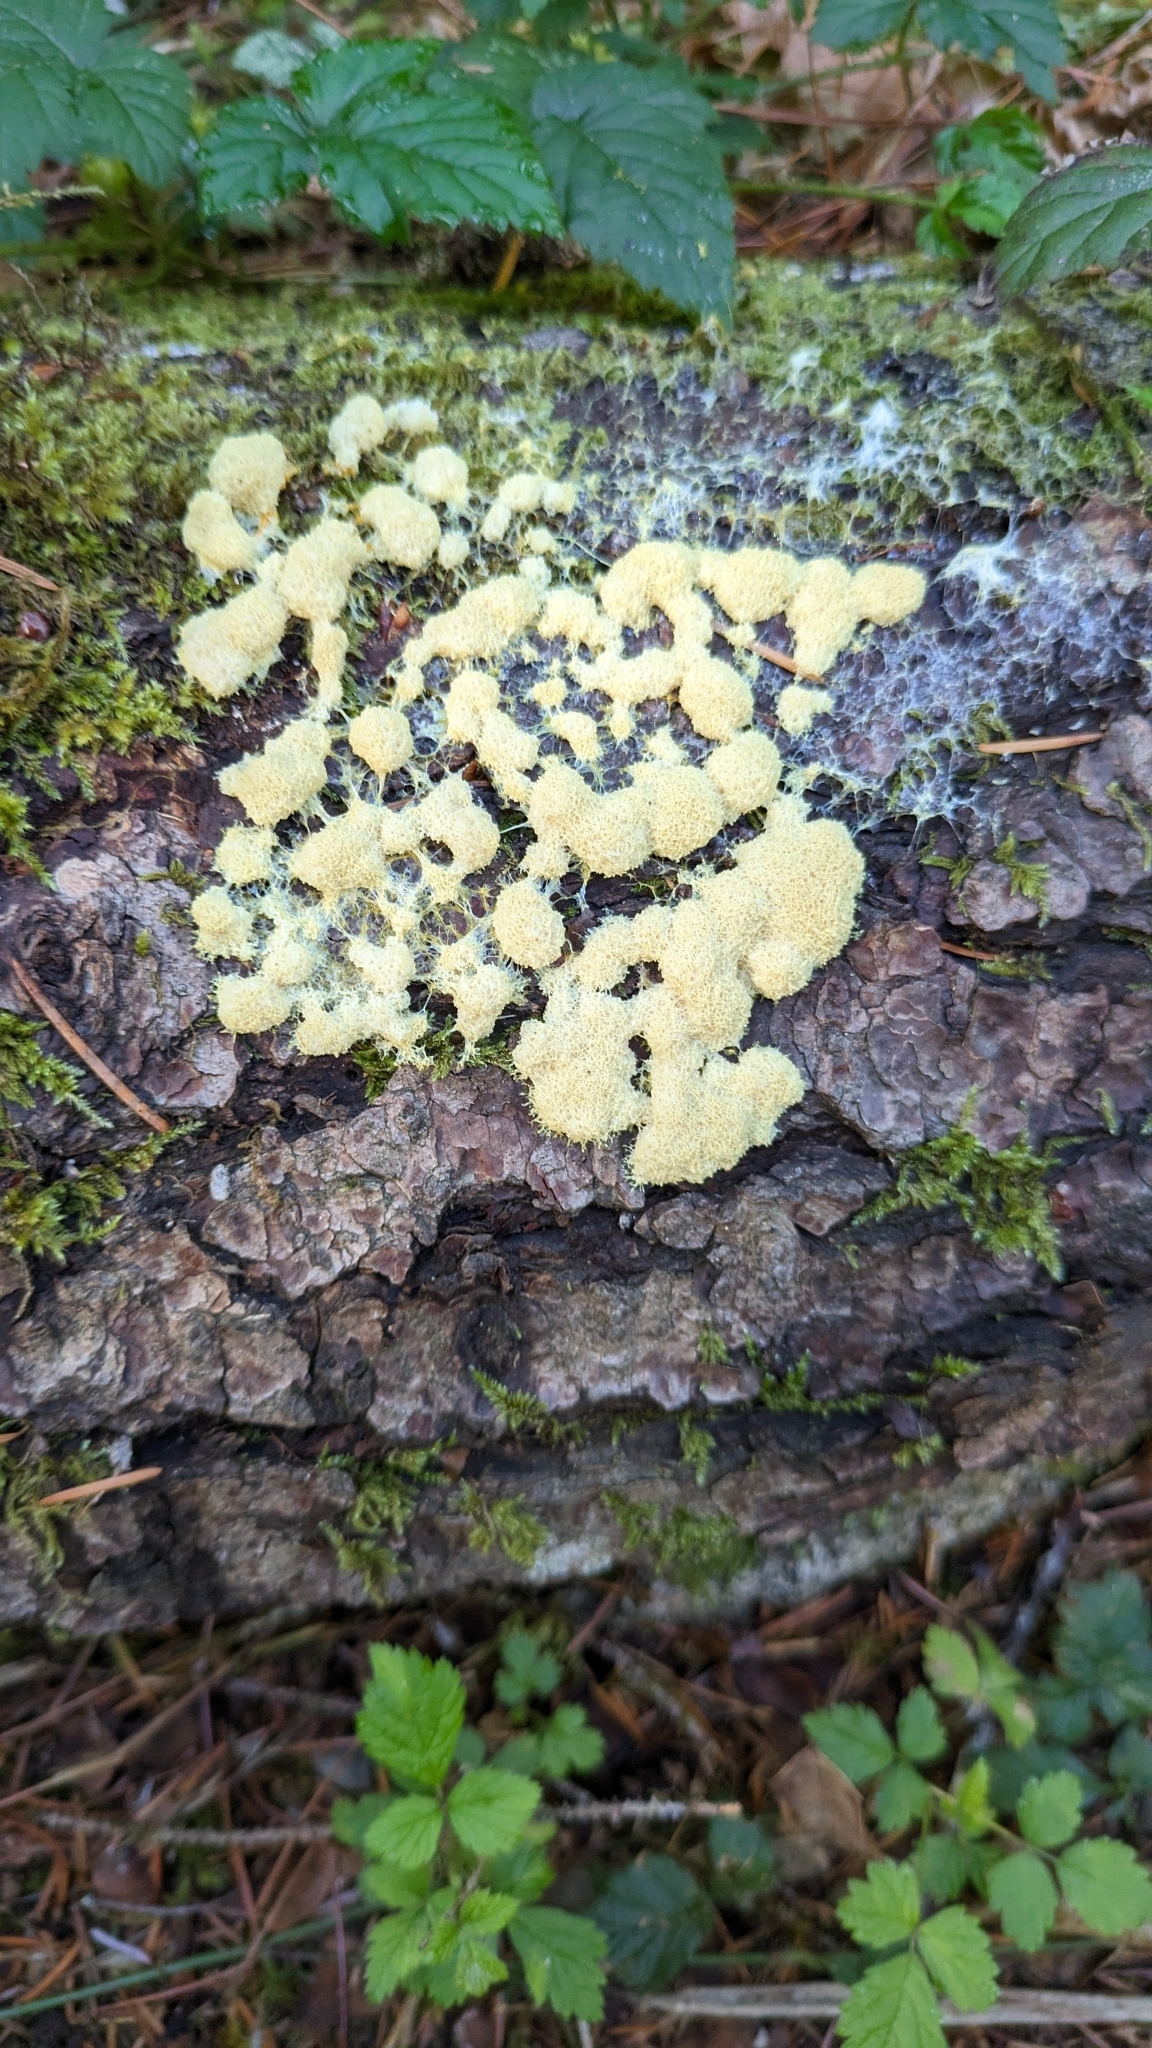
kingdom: Protozoa
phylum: Mycetozoa
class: Myxomycetes
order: Physarales
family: Physaraceae
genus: Fuligo
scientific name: Fuligo septica
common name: Dog vomit slime mold
